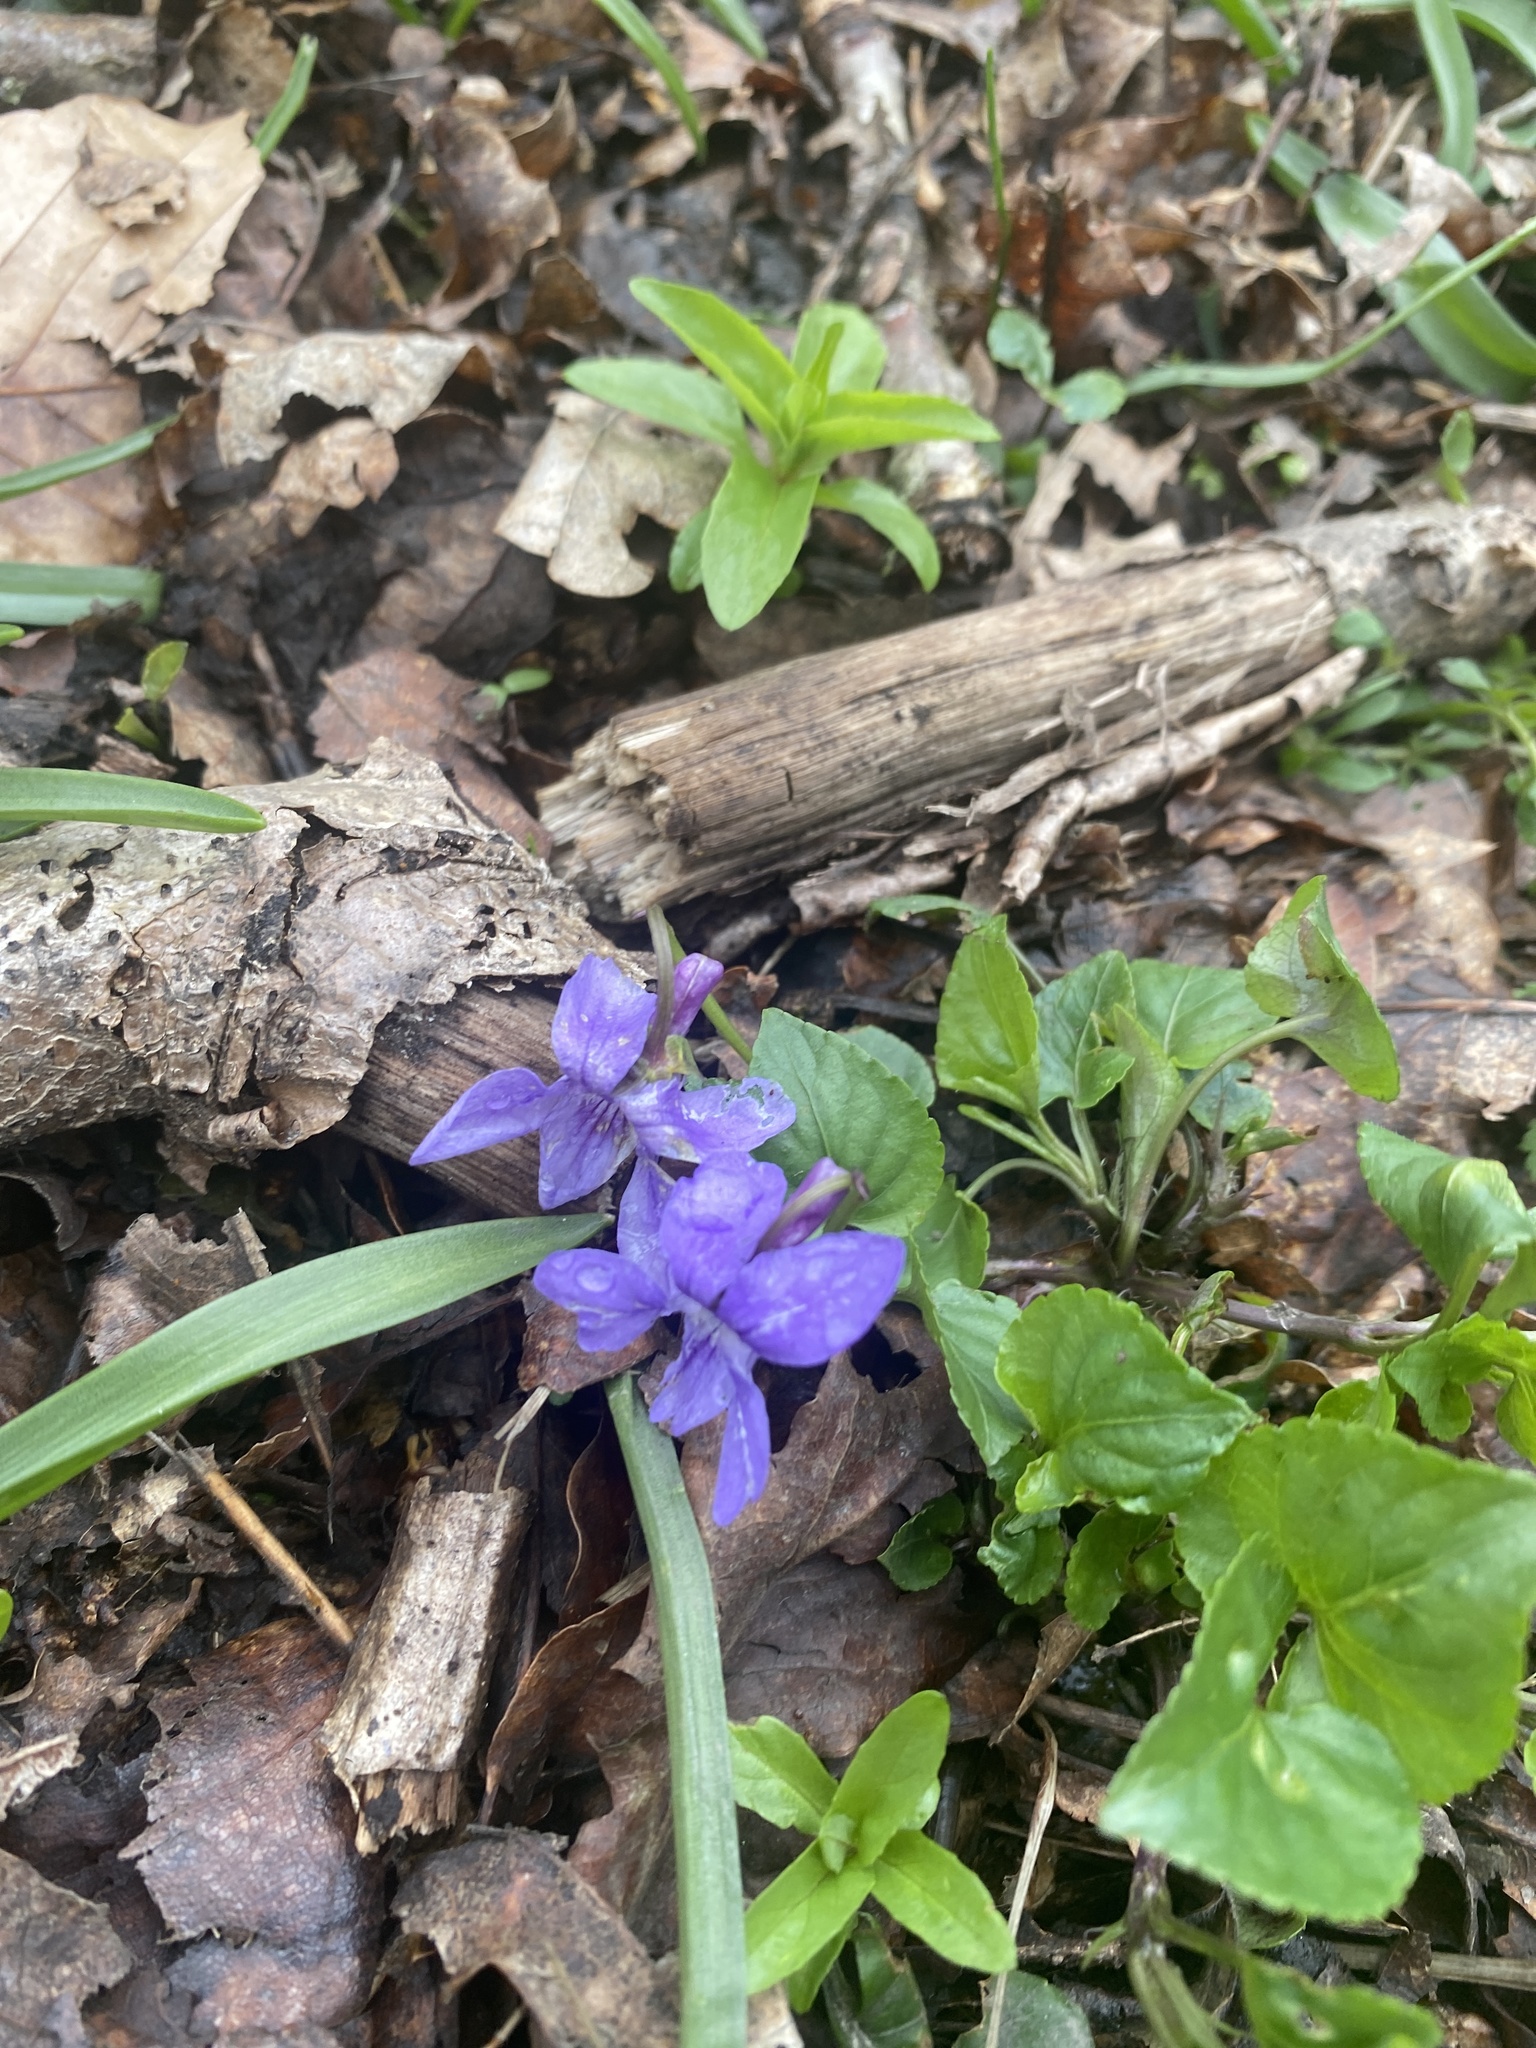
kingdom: Plantae
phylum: Tracheophyta
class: Magnoliopsida
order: Malpighiales
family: Violaceae
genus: Viola
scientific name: Viola reichenbachiana
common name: Early dog-violet
